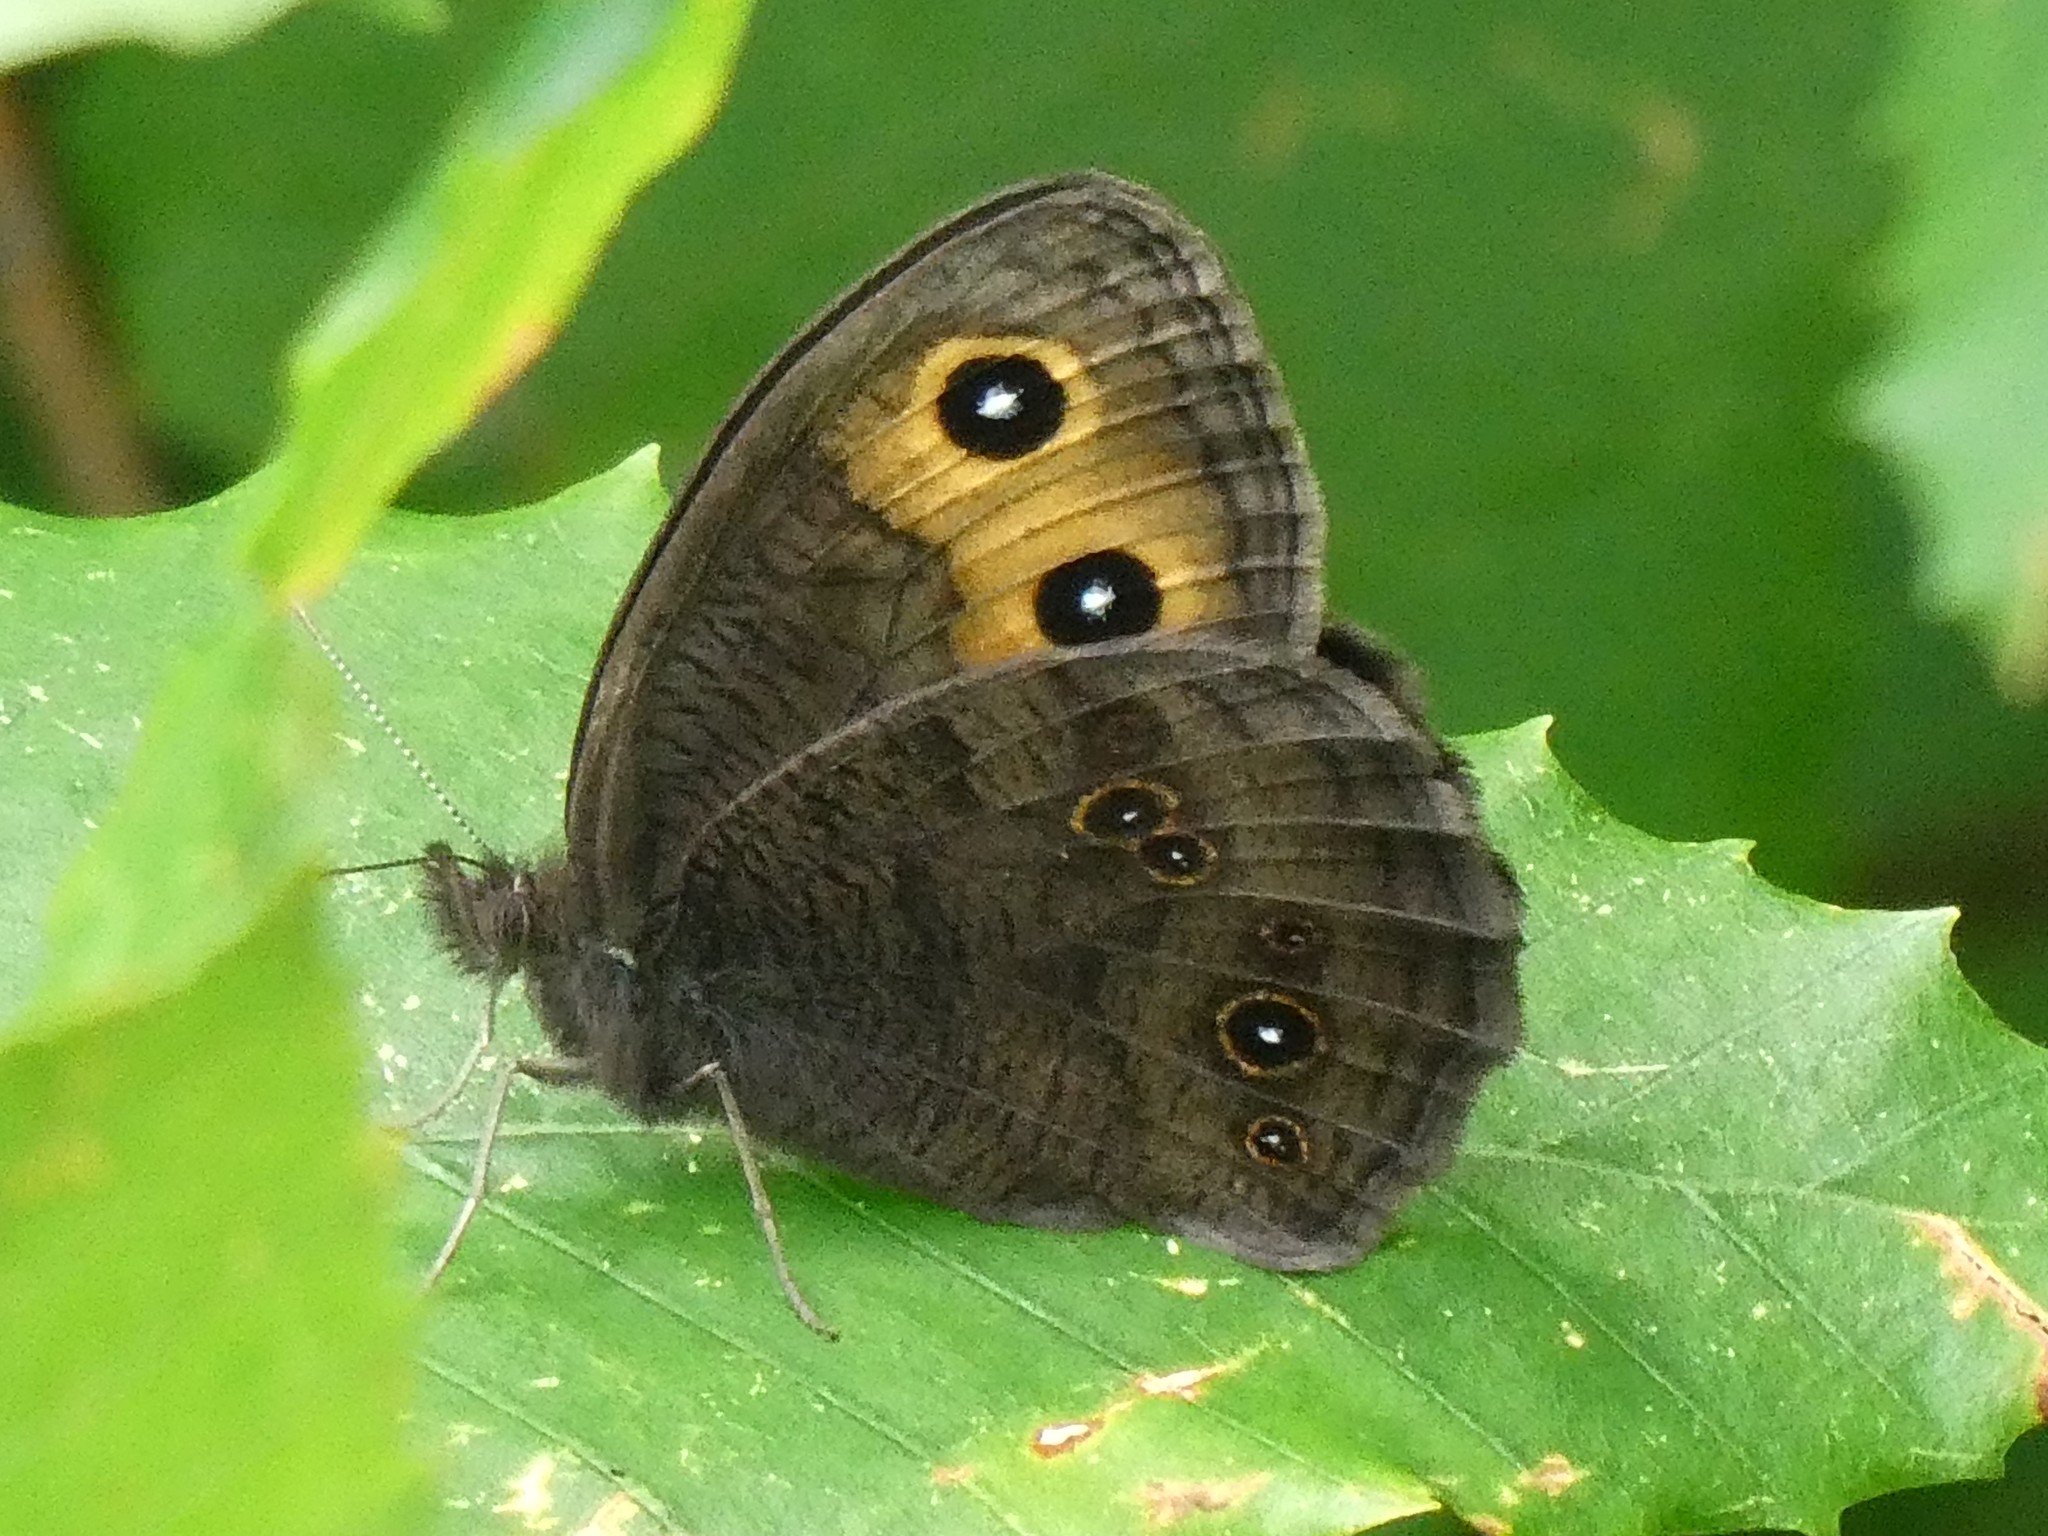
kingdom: Animalia
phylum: Arthropoda
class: Insecta
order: Lepidoptera
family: Nymphalidae
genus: Cercyonis
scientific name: Cercyonis pegala
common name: Common wood-nymph
